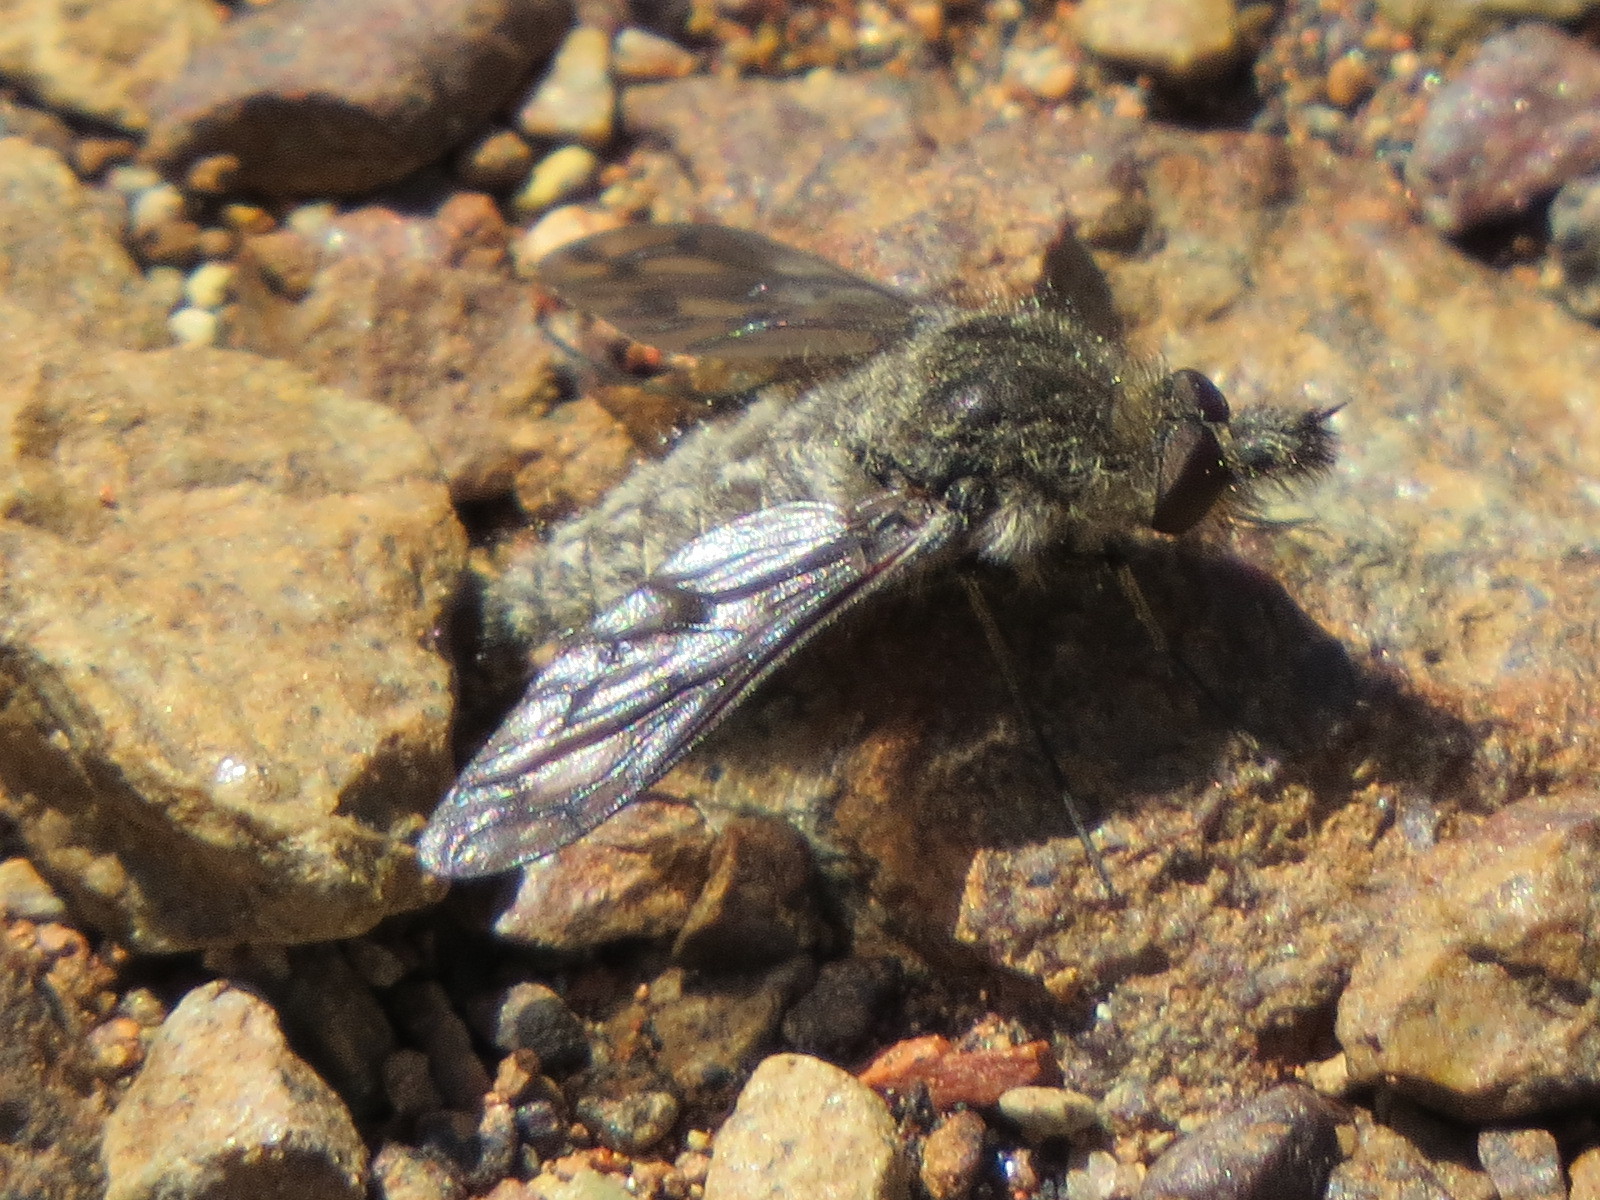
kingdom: Animalia
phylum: Arthropoda
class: Insecta
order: Diptera
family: Bombyliidae
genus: Conophorus
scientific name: Conophorus fenestratus
